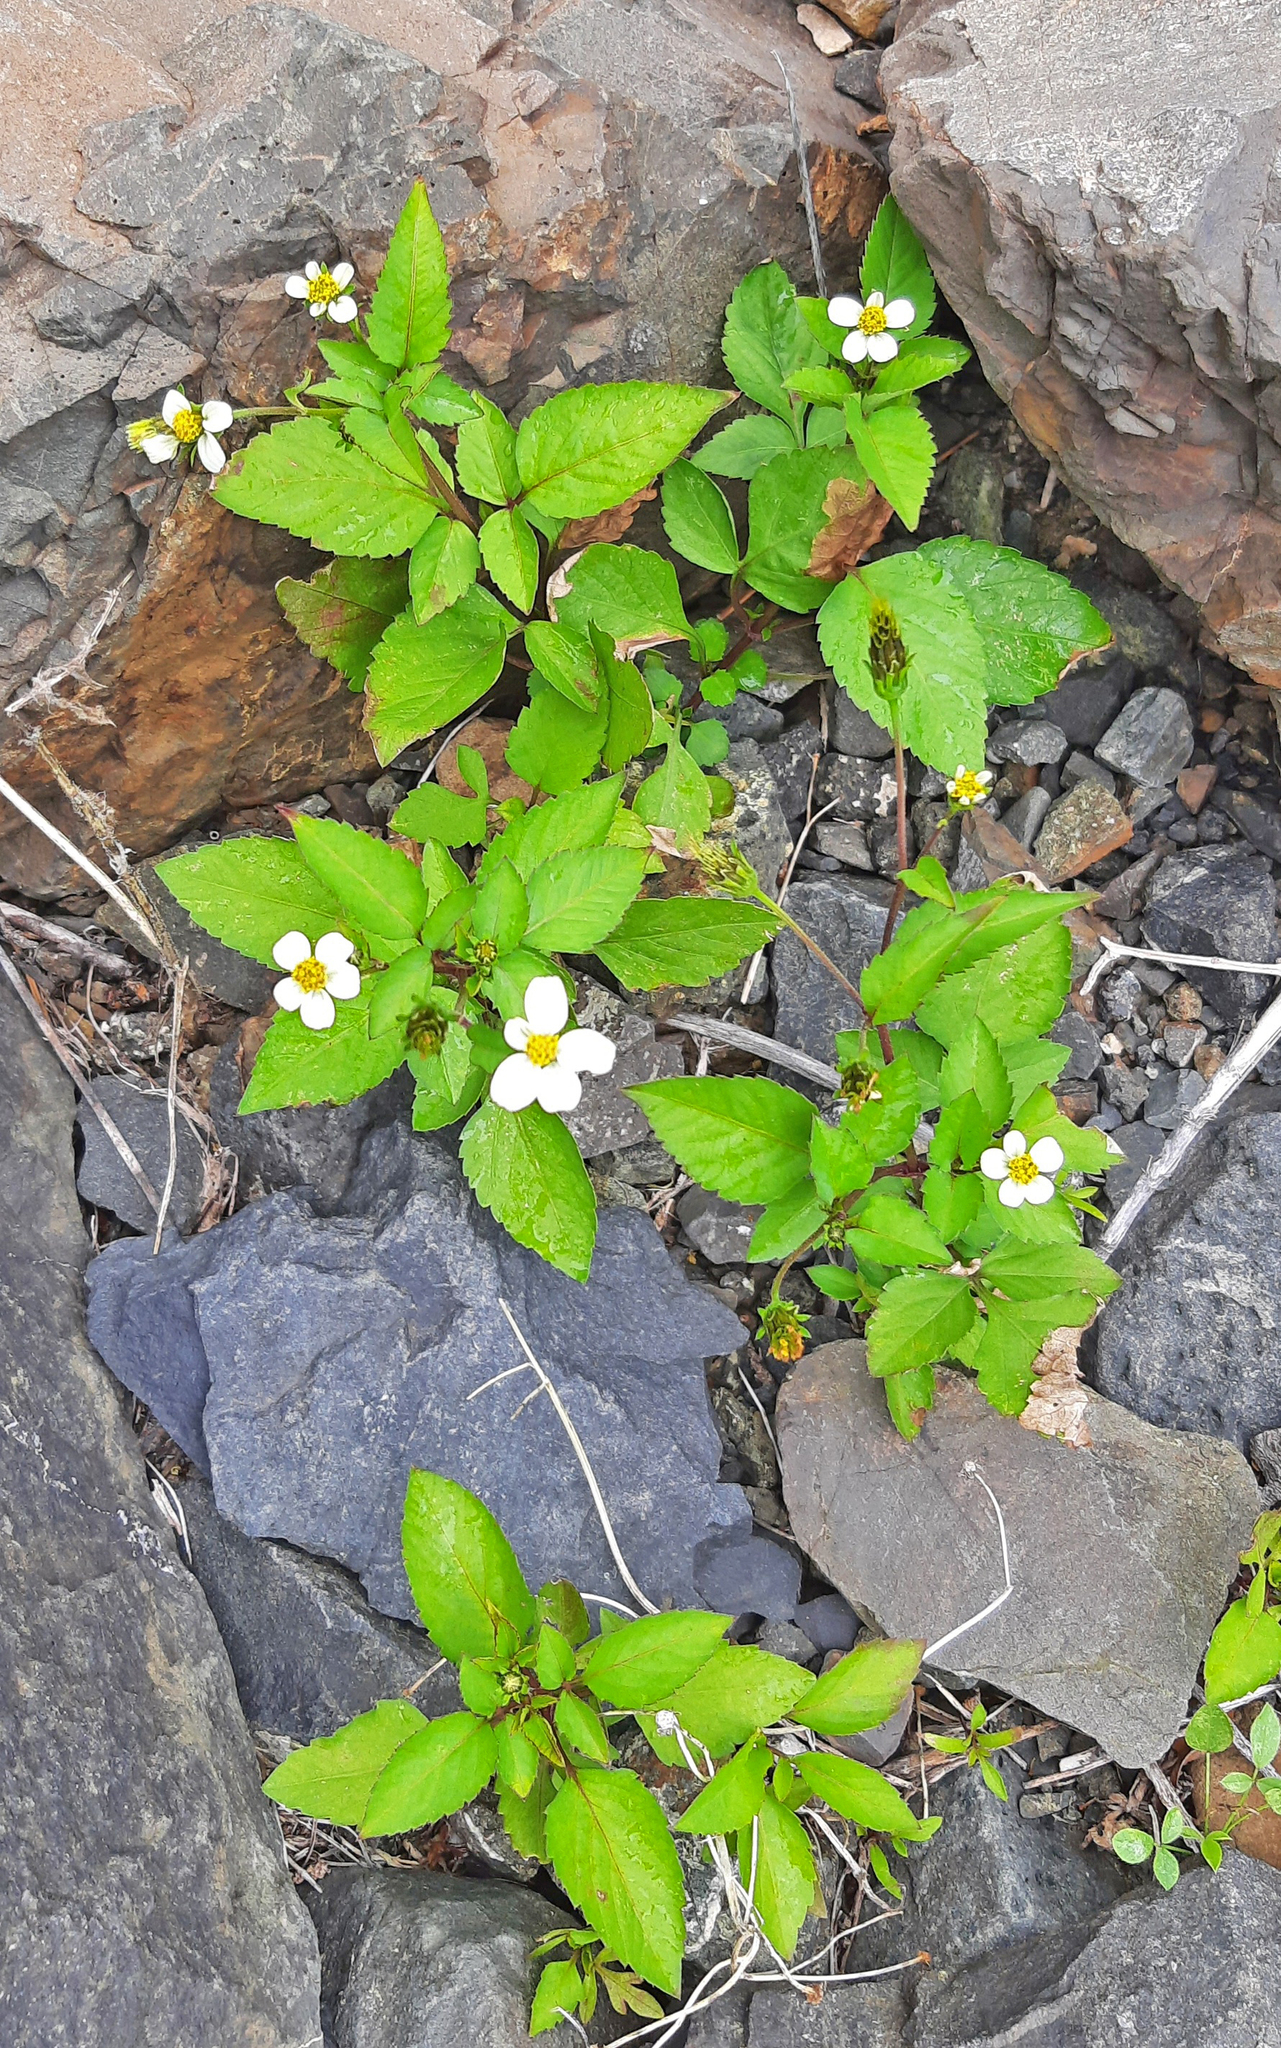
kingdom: Plantae
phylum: Tracheophyta
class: Magnoliopsida
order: Asterales
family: Asteraceae
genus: Bidens
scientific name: Bidens pilosa
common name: Black-jack
